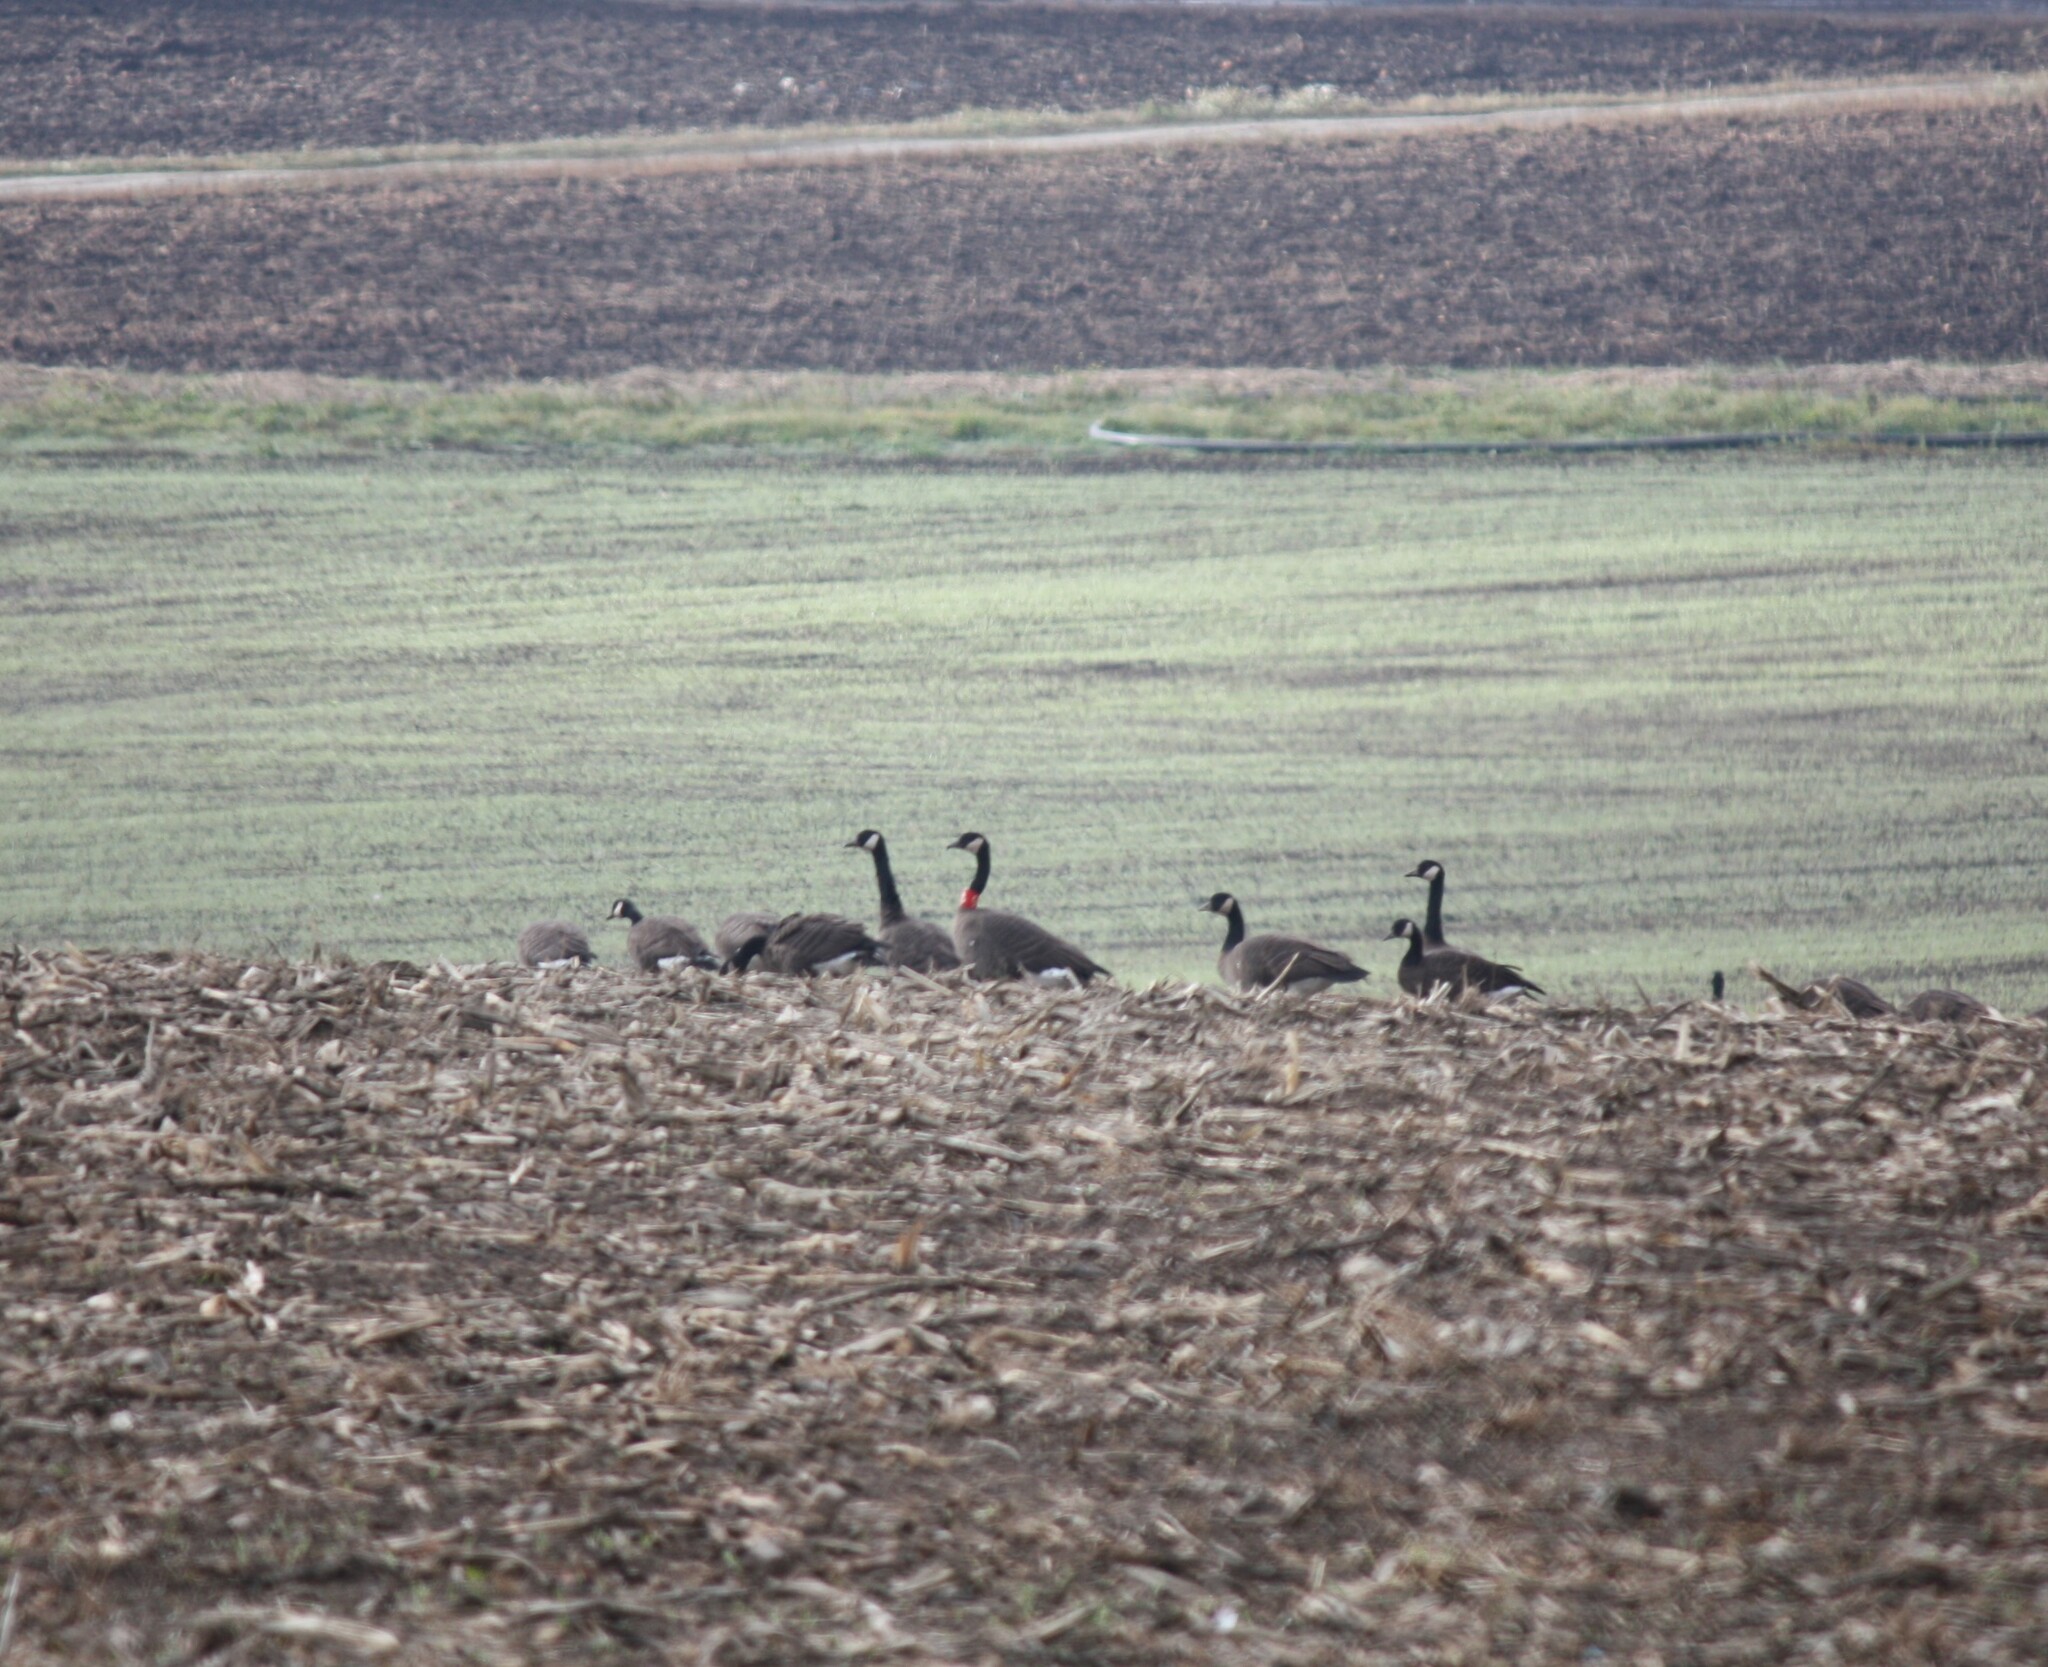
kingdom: Animalia
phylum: Chordata
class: Aves
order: Anseriformes
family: Anatidae
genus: Branta
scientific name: Branta canadensis
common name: Canada goose
